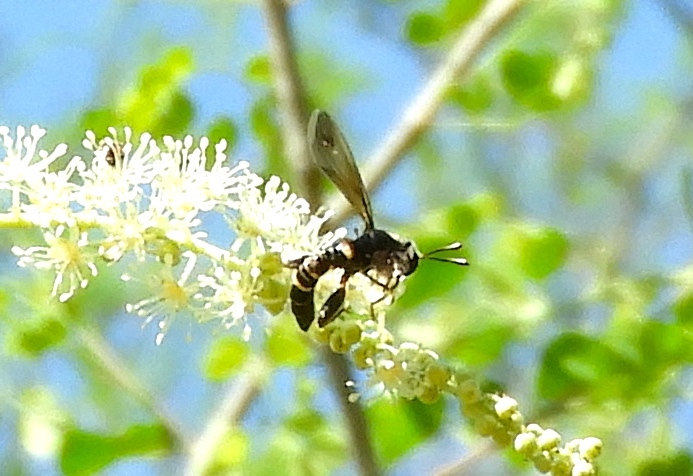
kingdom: Animalia
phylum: Arthropoda
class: Insecta
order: Diptera
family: Mydidae
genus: Mydas
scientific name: Mydas hardyi
